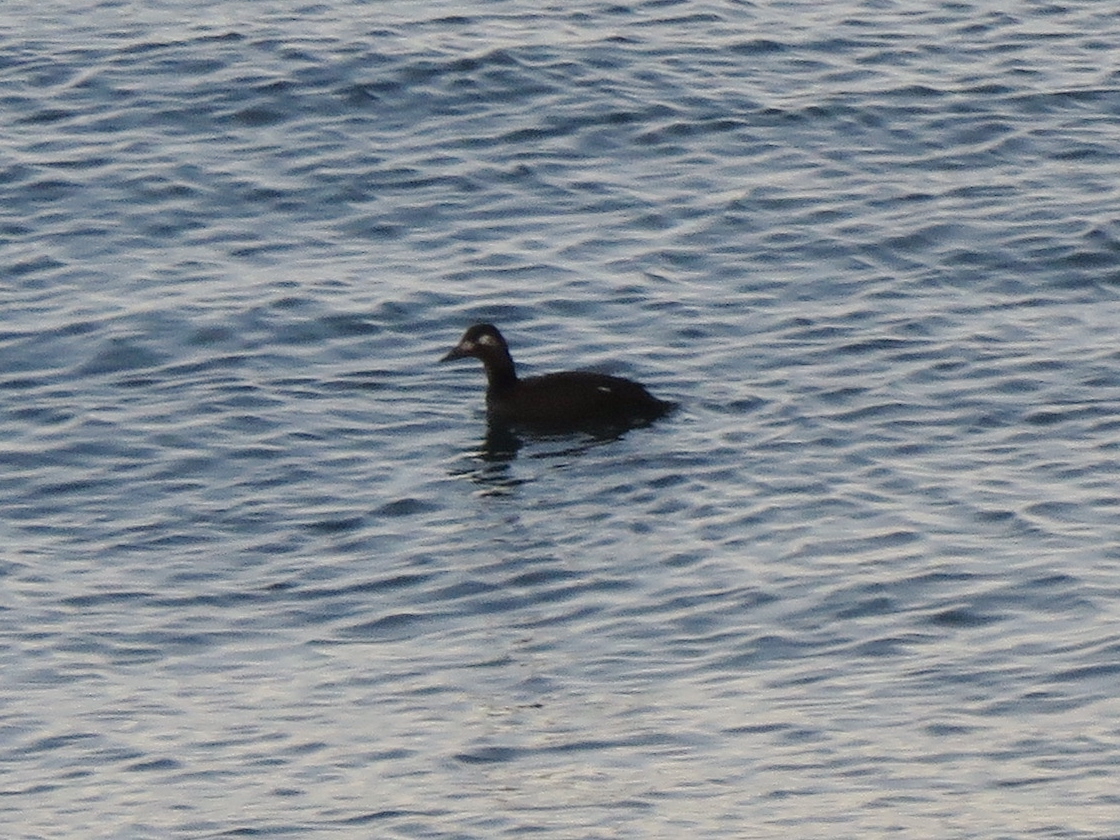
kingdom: Animalia
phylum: Chordata
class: Aves
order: Anseriformes
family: Anatidae
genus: Melanitta
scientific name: Melanitta deglandi
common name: White-winged scoter
